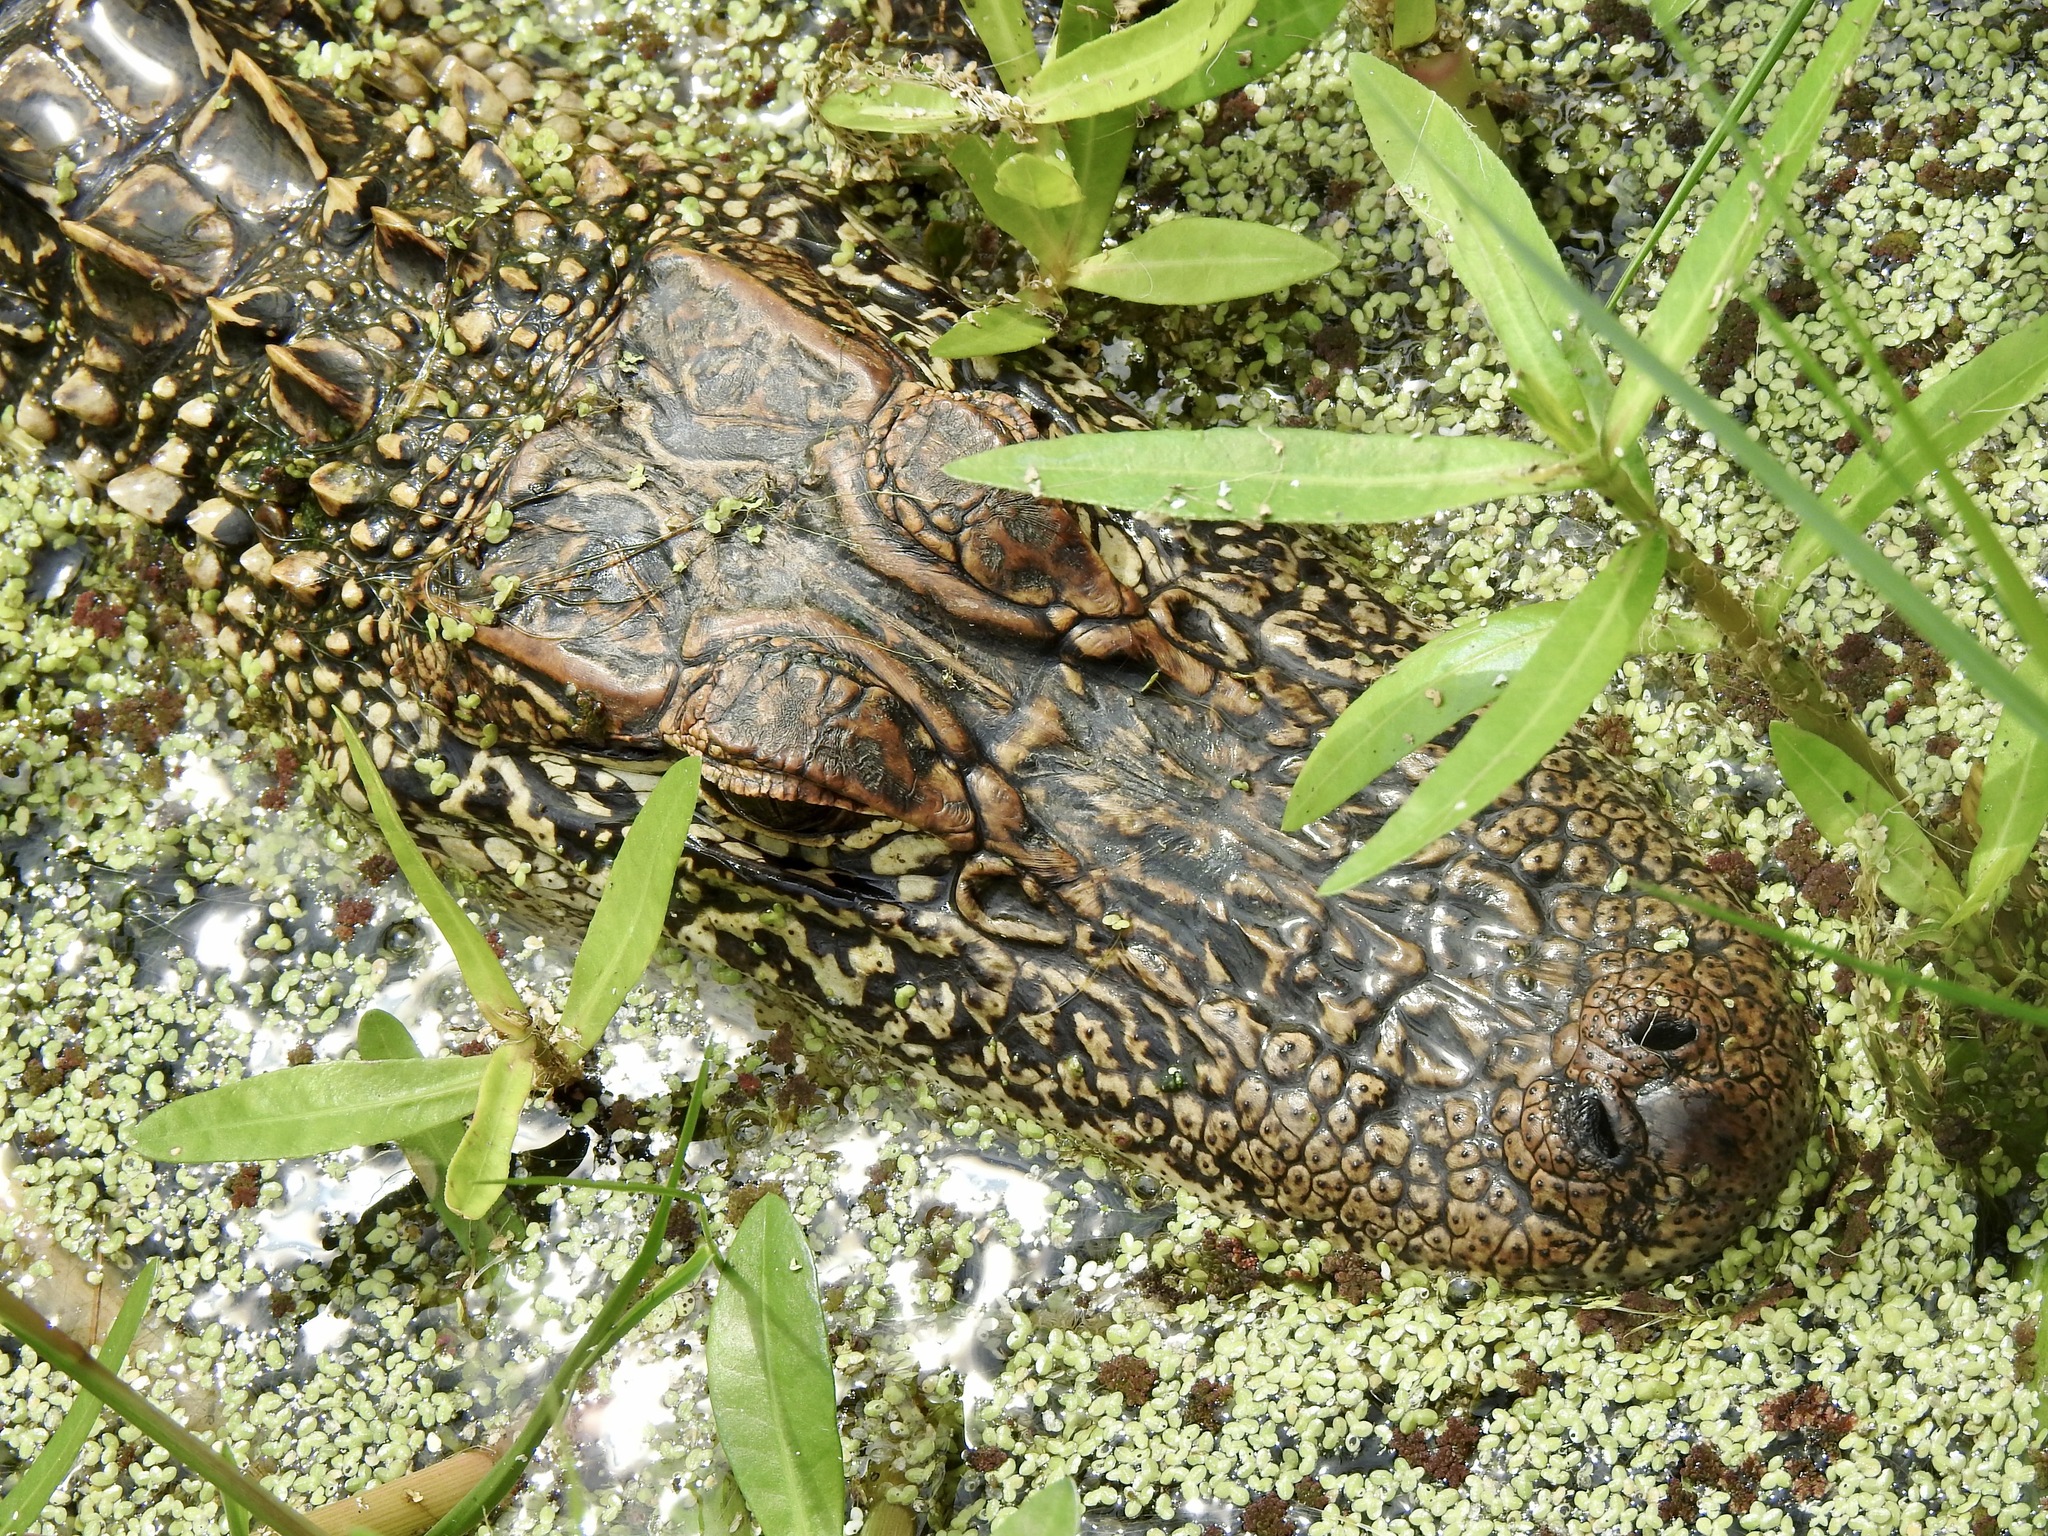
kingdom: Animalia
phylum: Chordata
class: Crocodylia
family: Alligatoridae
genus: Alligator
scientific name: Alligator mississippiensis
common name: American alligator
